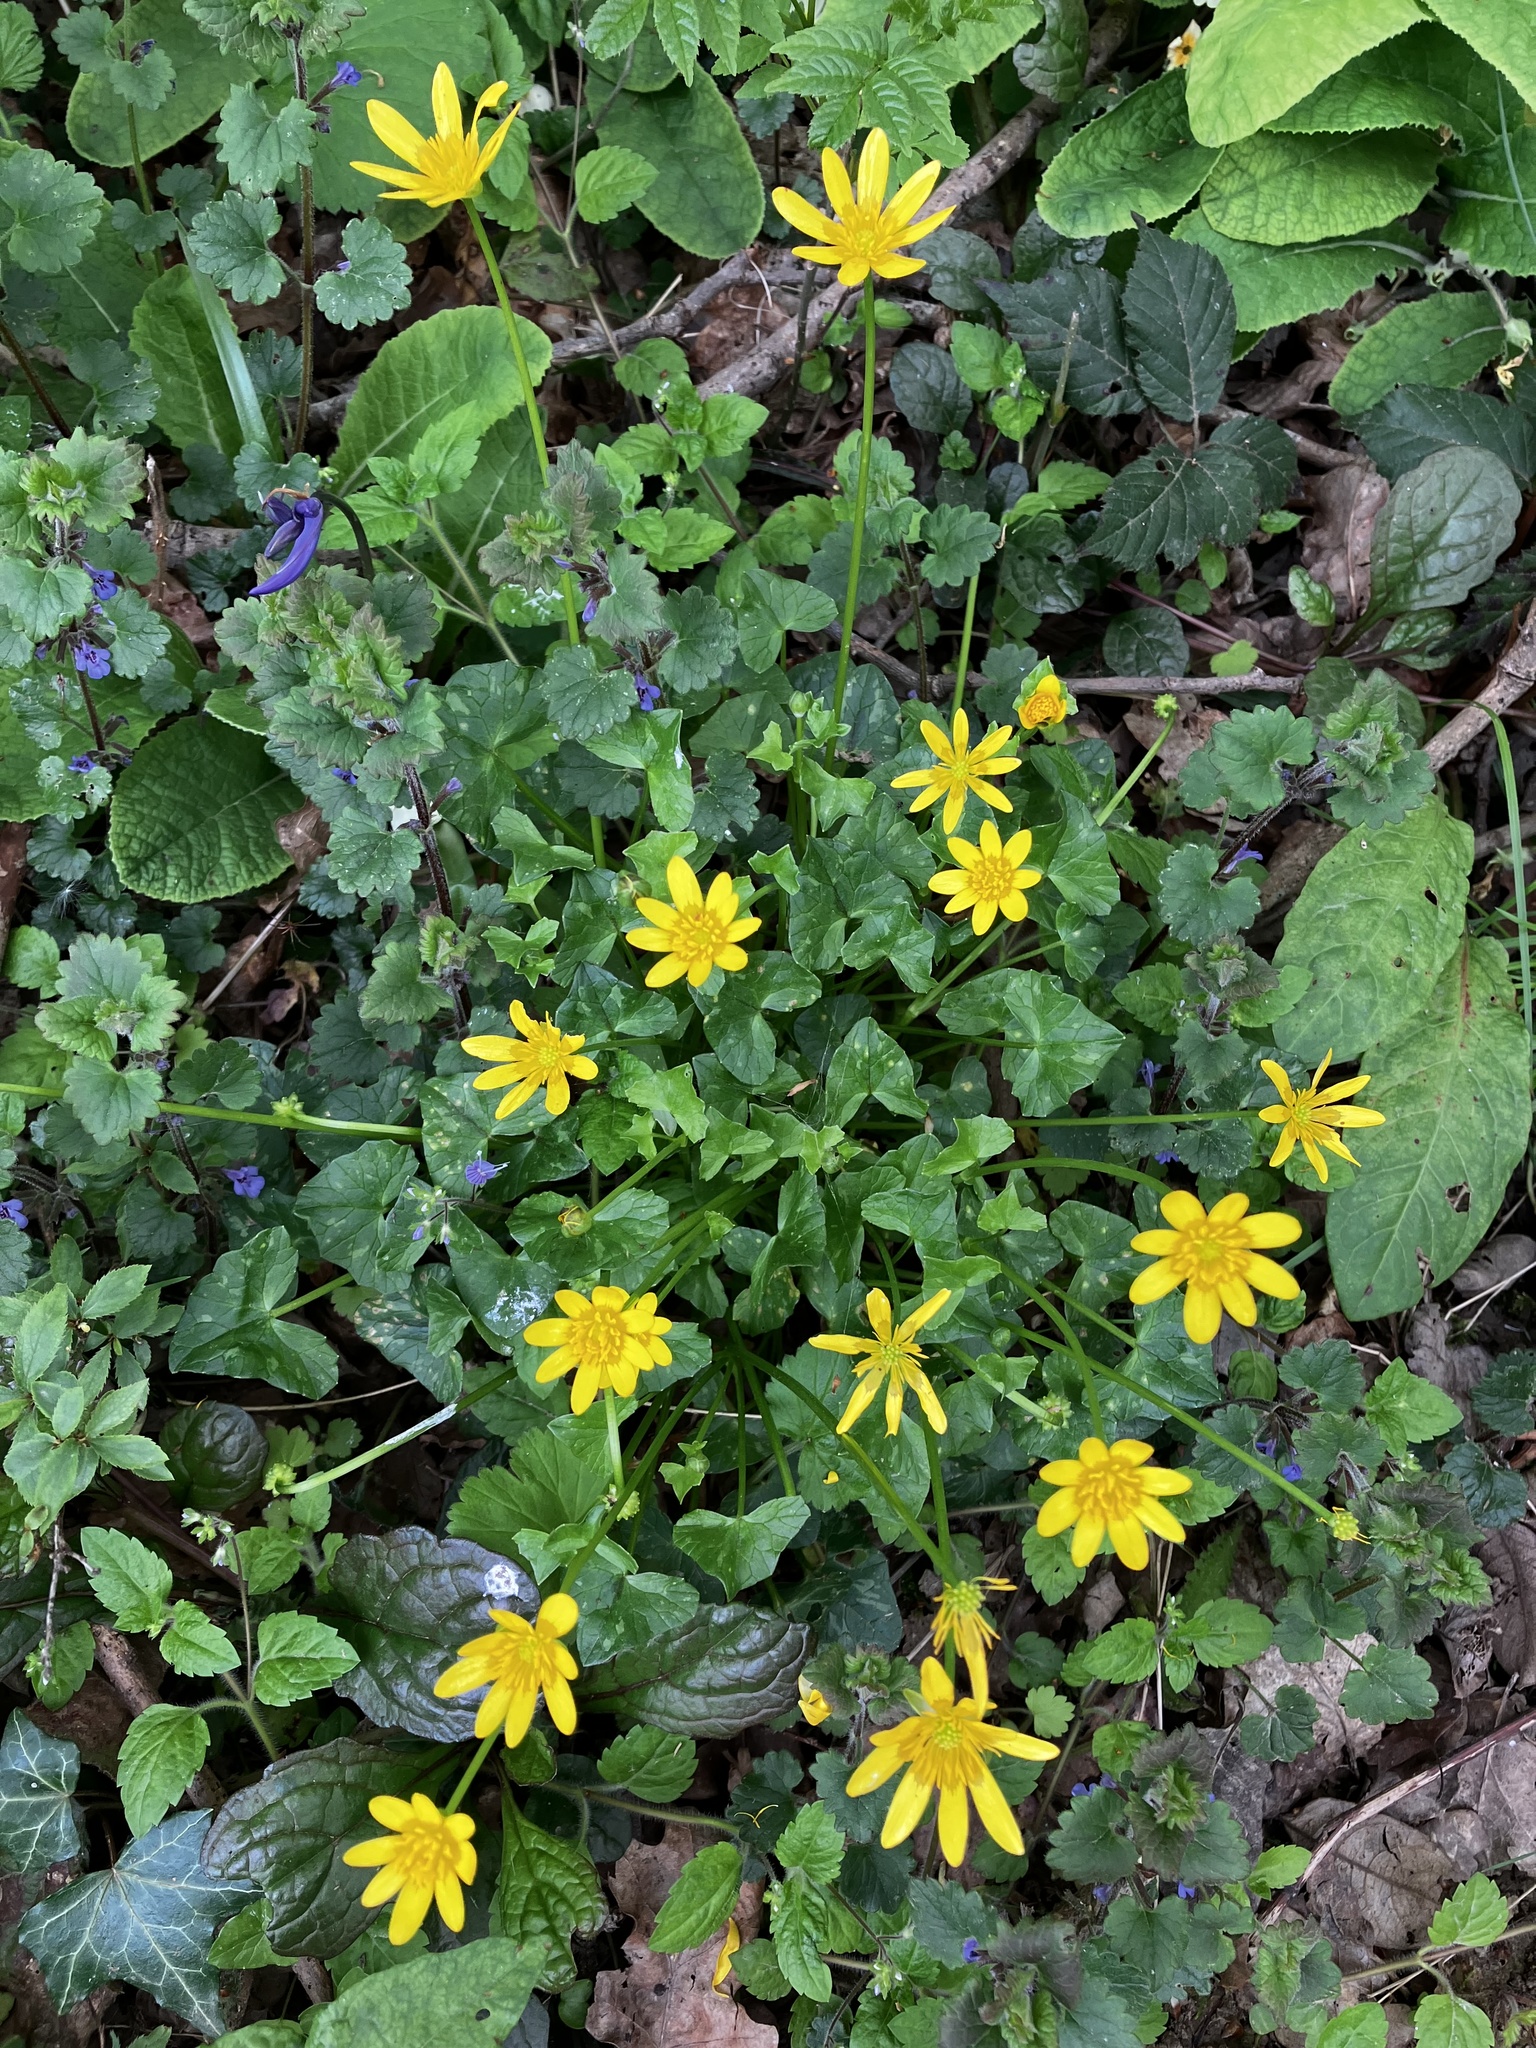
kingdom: Plantae
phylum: Tracheophyta
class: Magnoliopsida
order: Ranunculales
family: Ranunculaceae
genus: Ficaria
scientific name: Ficaria verna
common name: Lesser celandine
